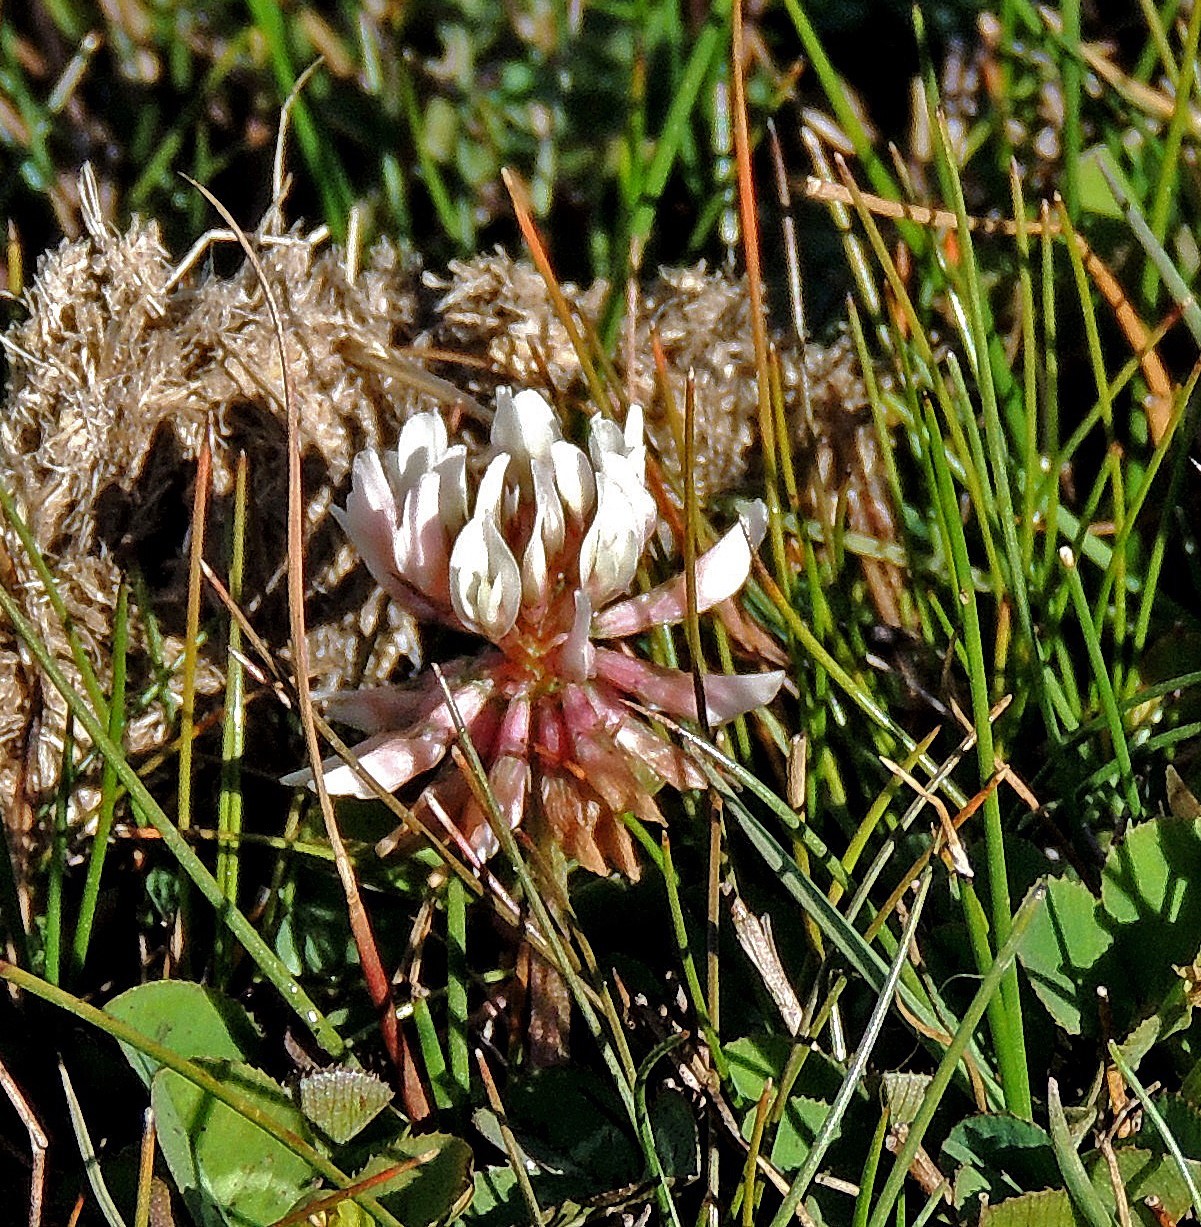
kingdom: Plantae
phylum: Tracheophyta
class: Magnoliopsida
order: Fabales
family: Fabaceae
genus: Trifolium
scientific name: Trifolium repens
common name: White clover
